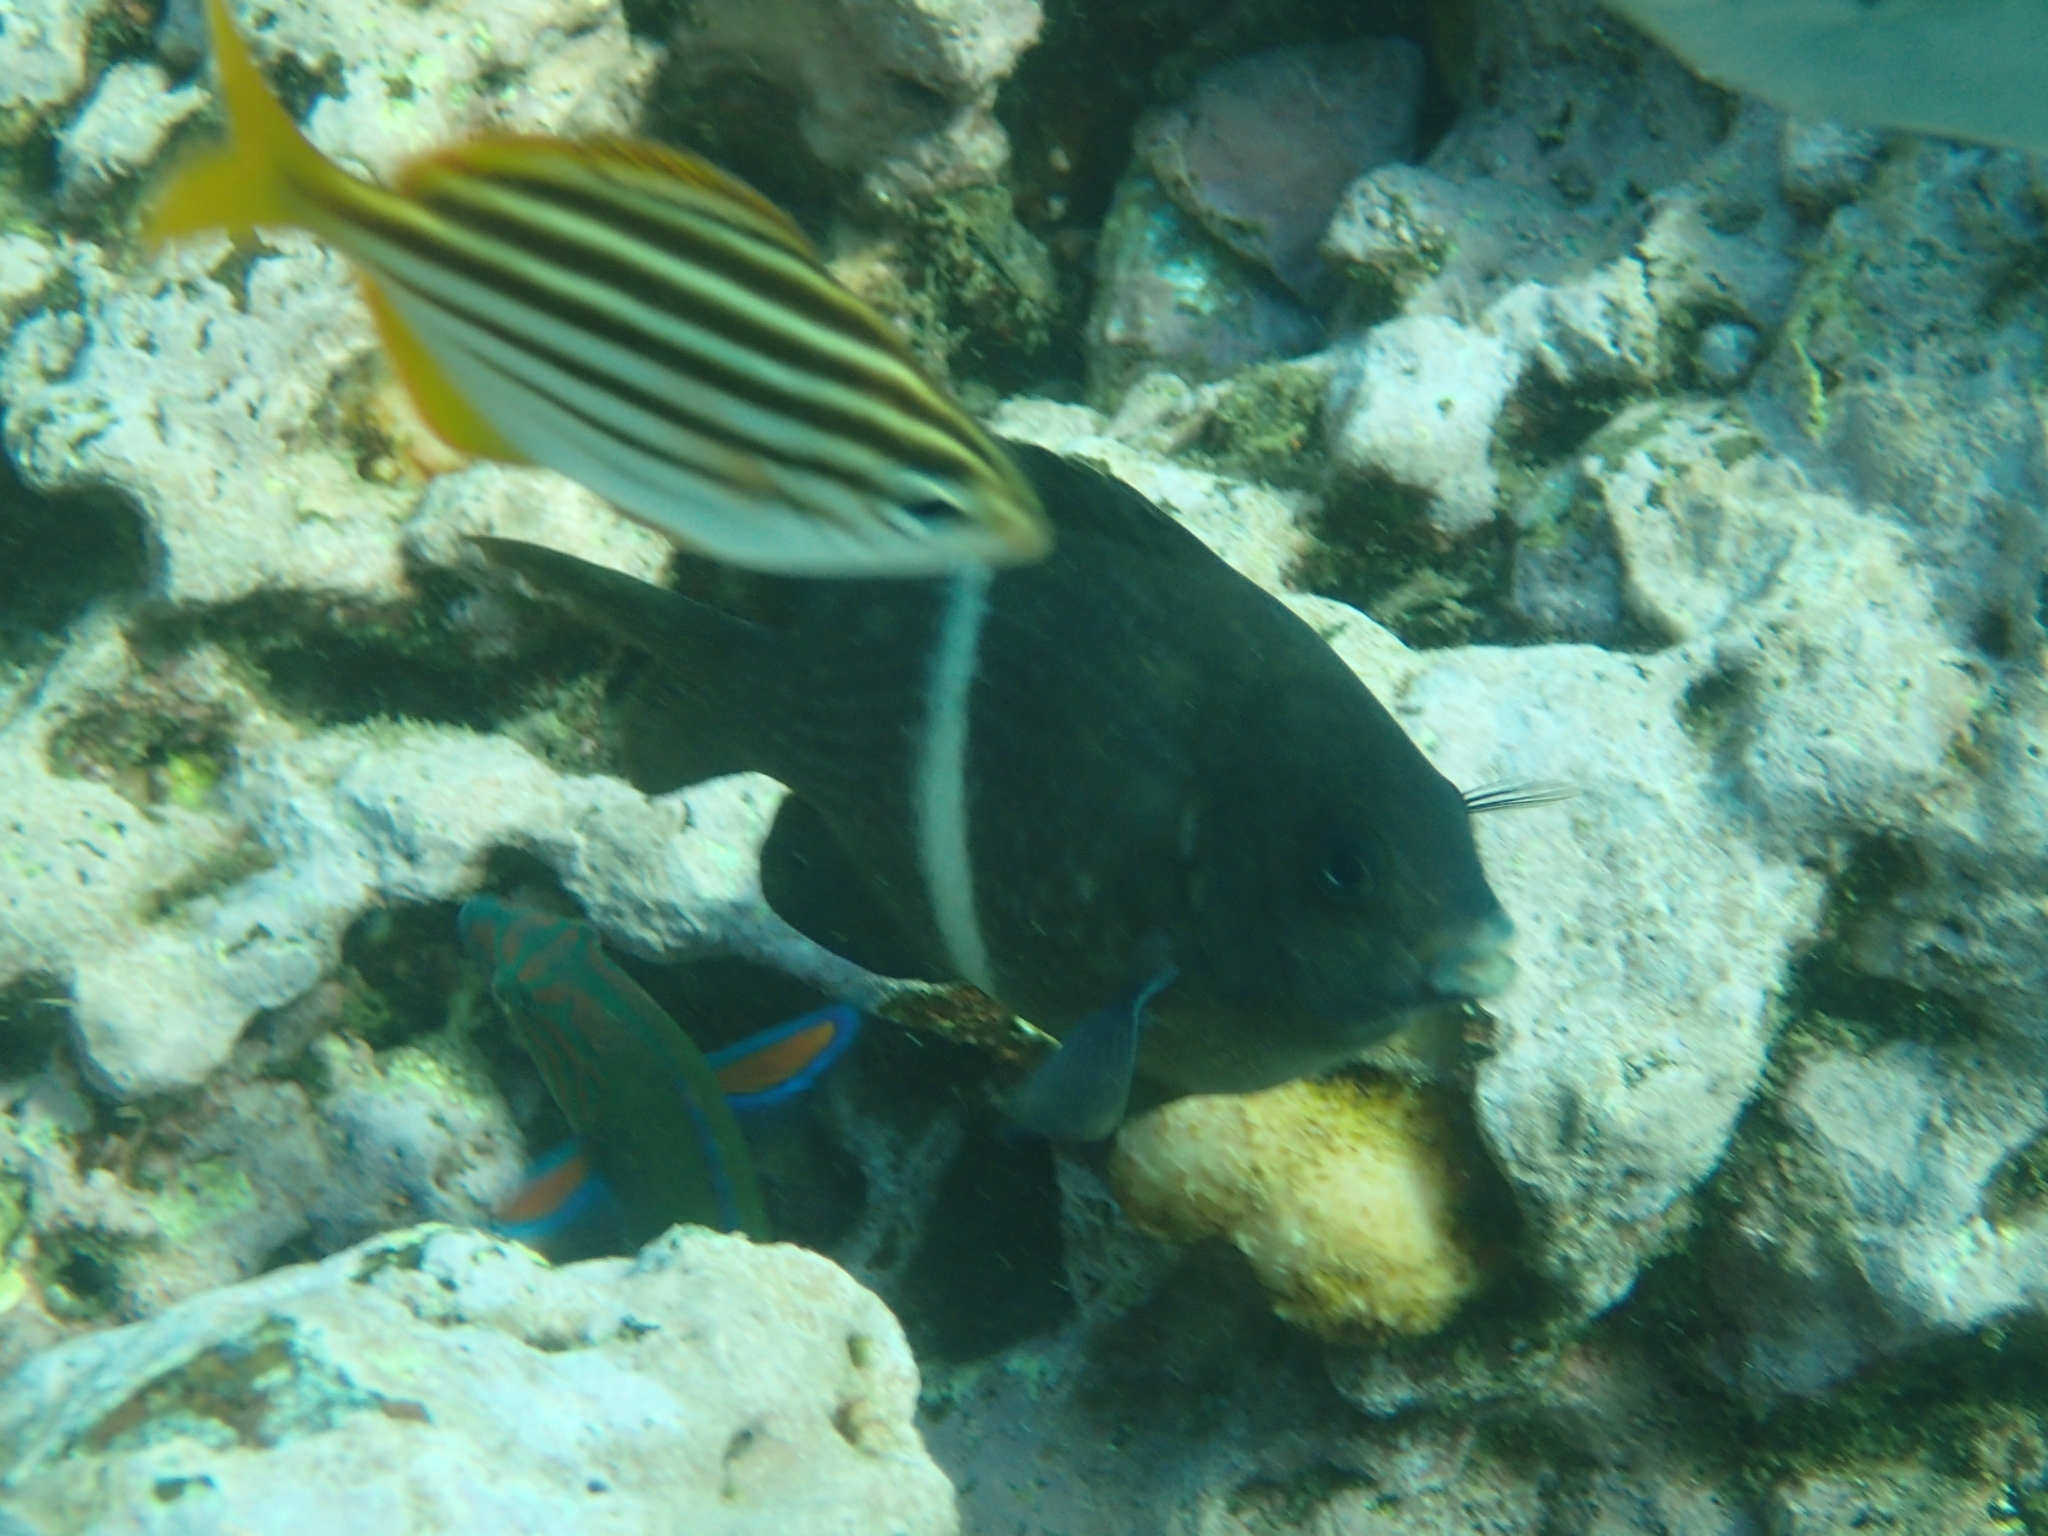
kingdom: Animalia
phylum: Chordata
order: Perciformes
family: Pomacentridae
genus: Parma
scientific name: Parma unifasciata
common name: Girdled parma
